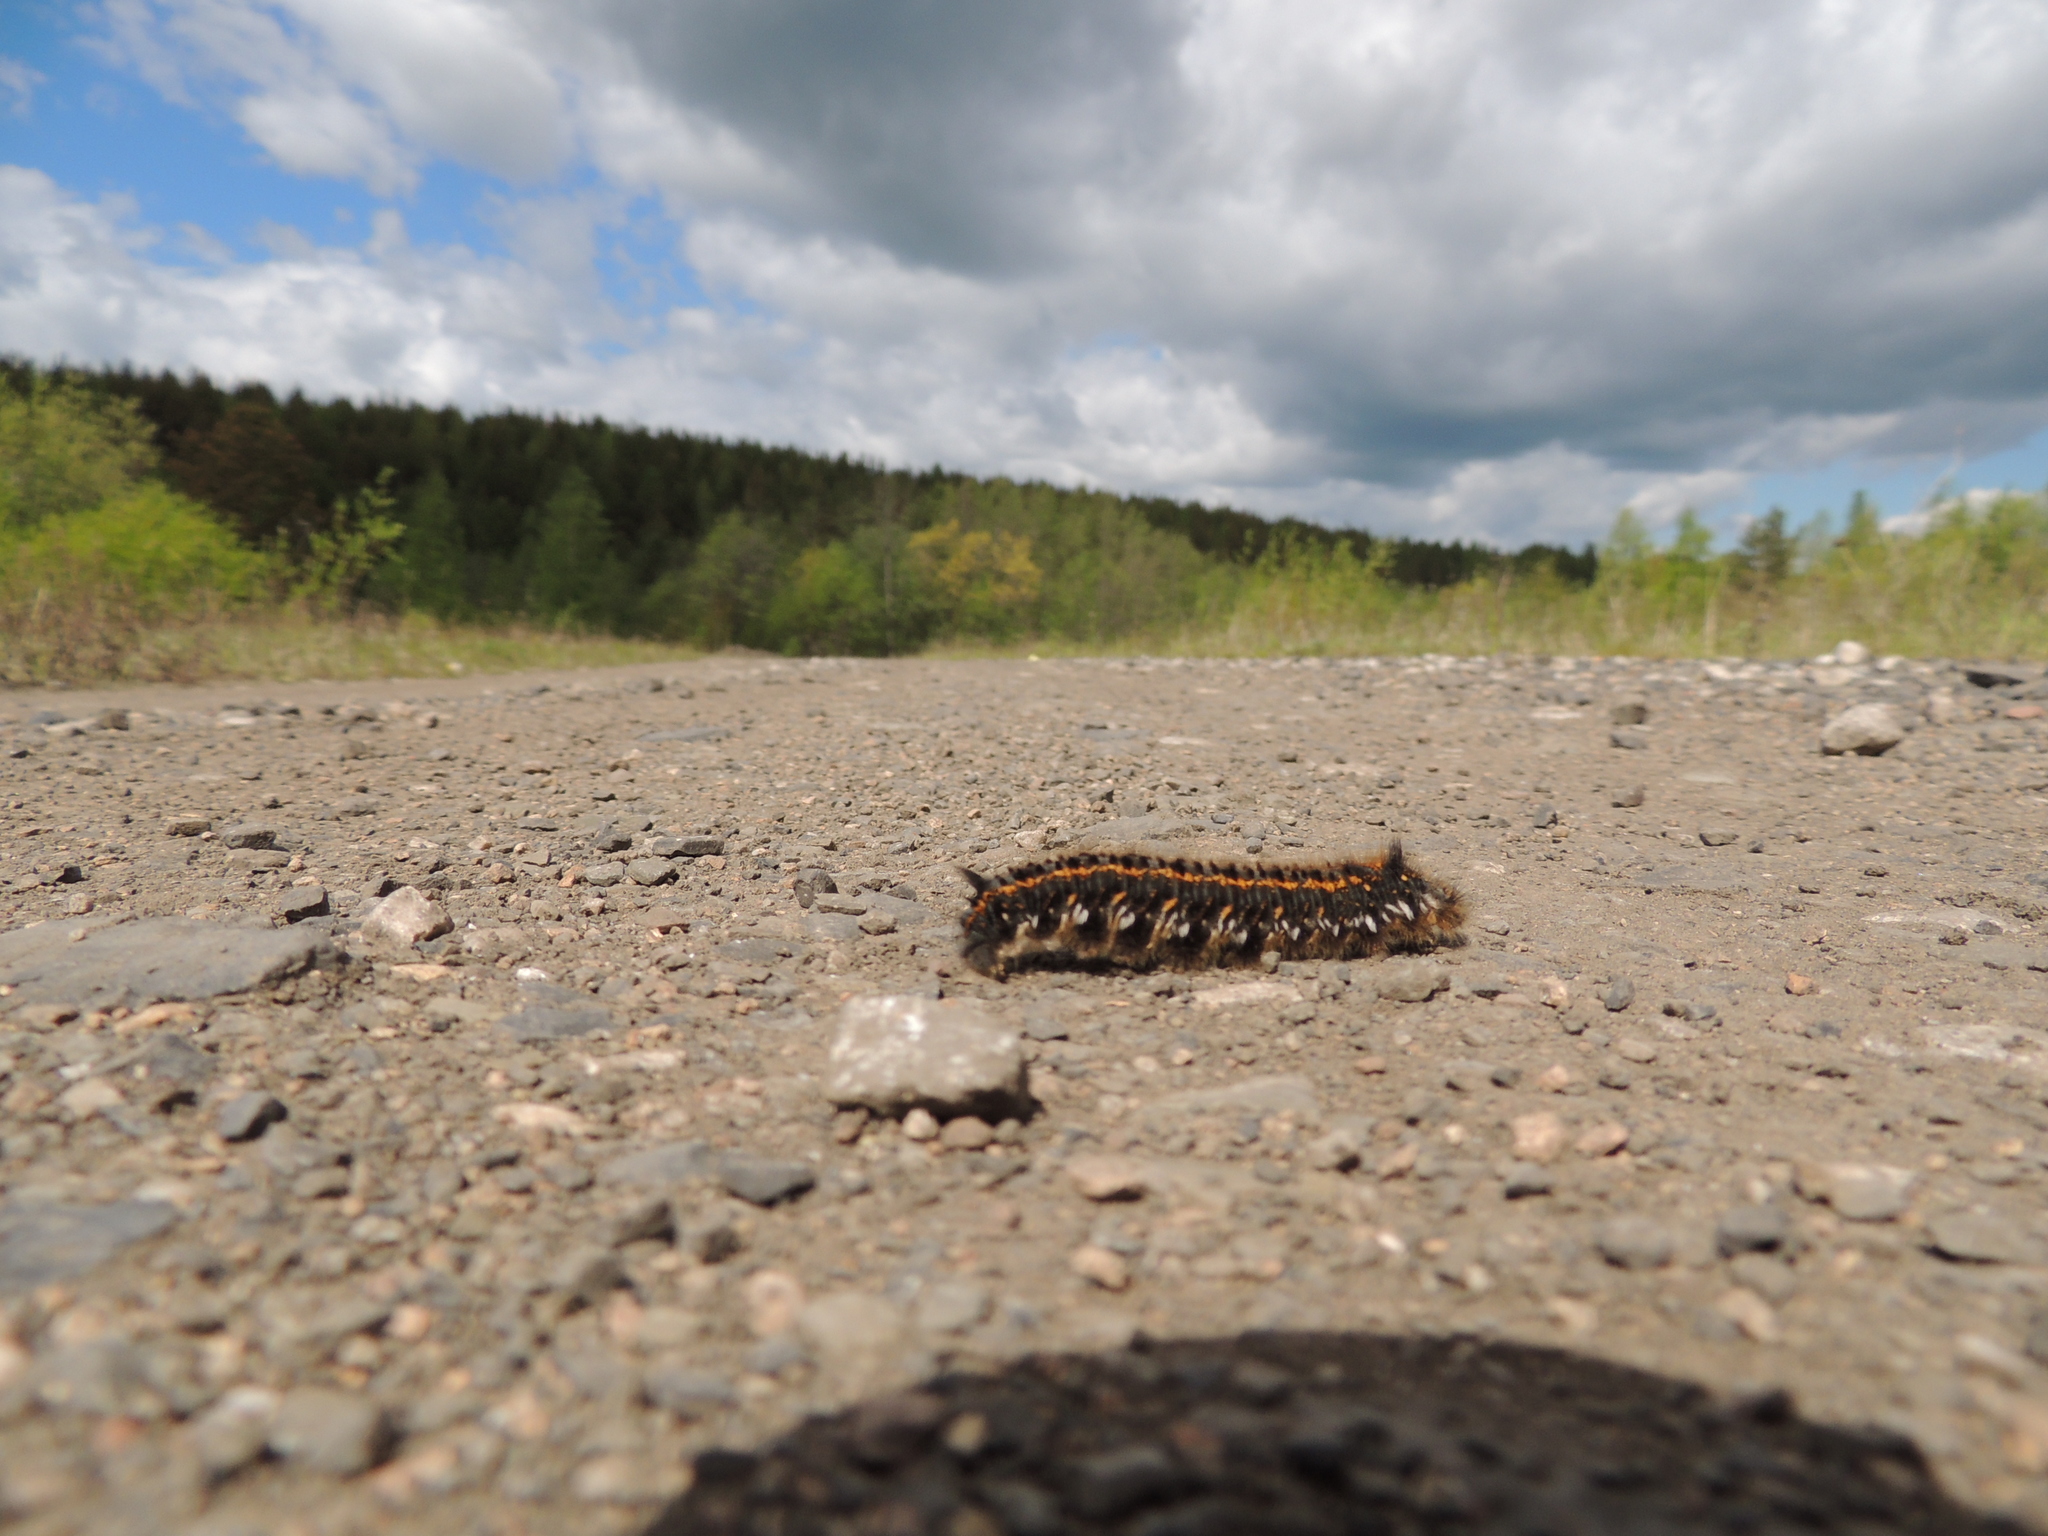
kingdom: Animalia
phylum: Arthropoda
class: Insecta
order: Lepidoptera
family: Lasiocampidae
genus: Euthrix
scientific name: Euthrix potatoria
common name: Drinker
